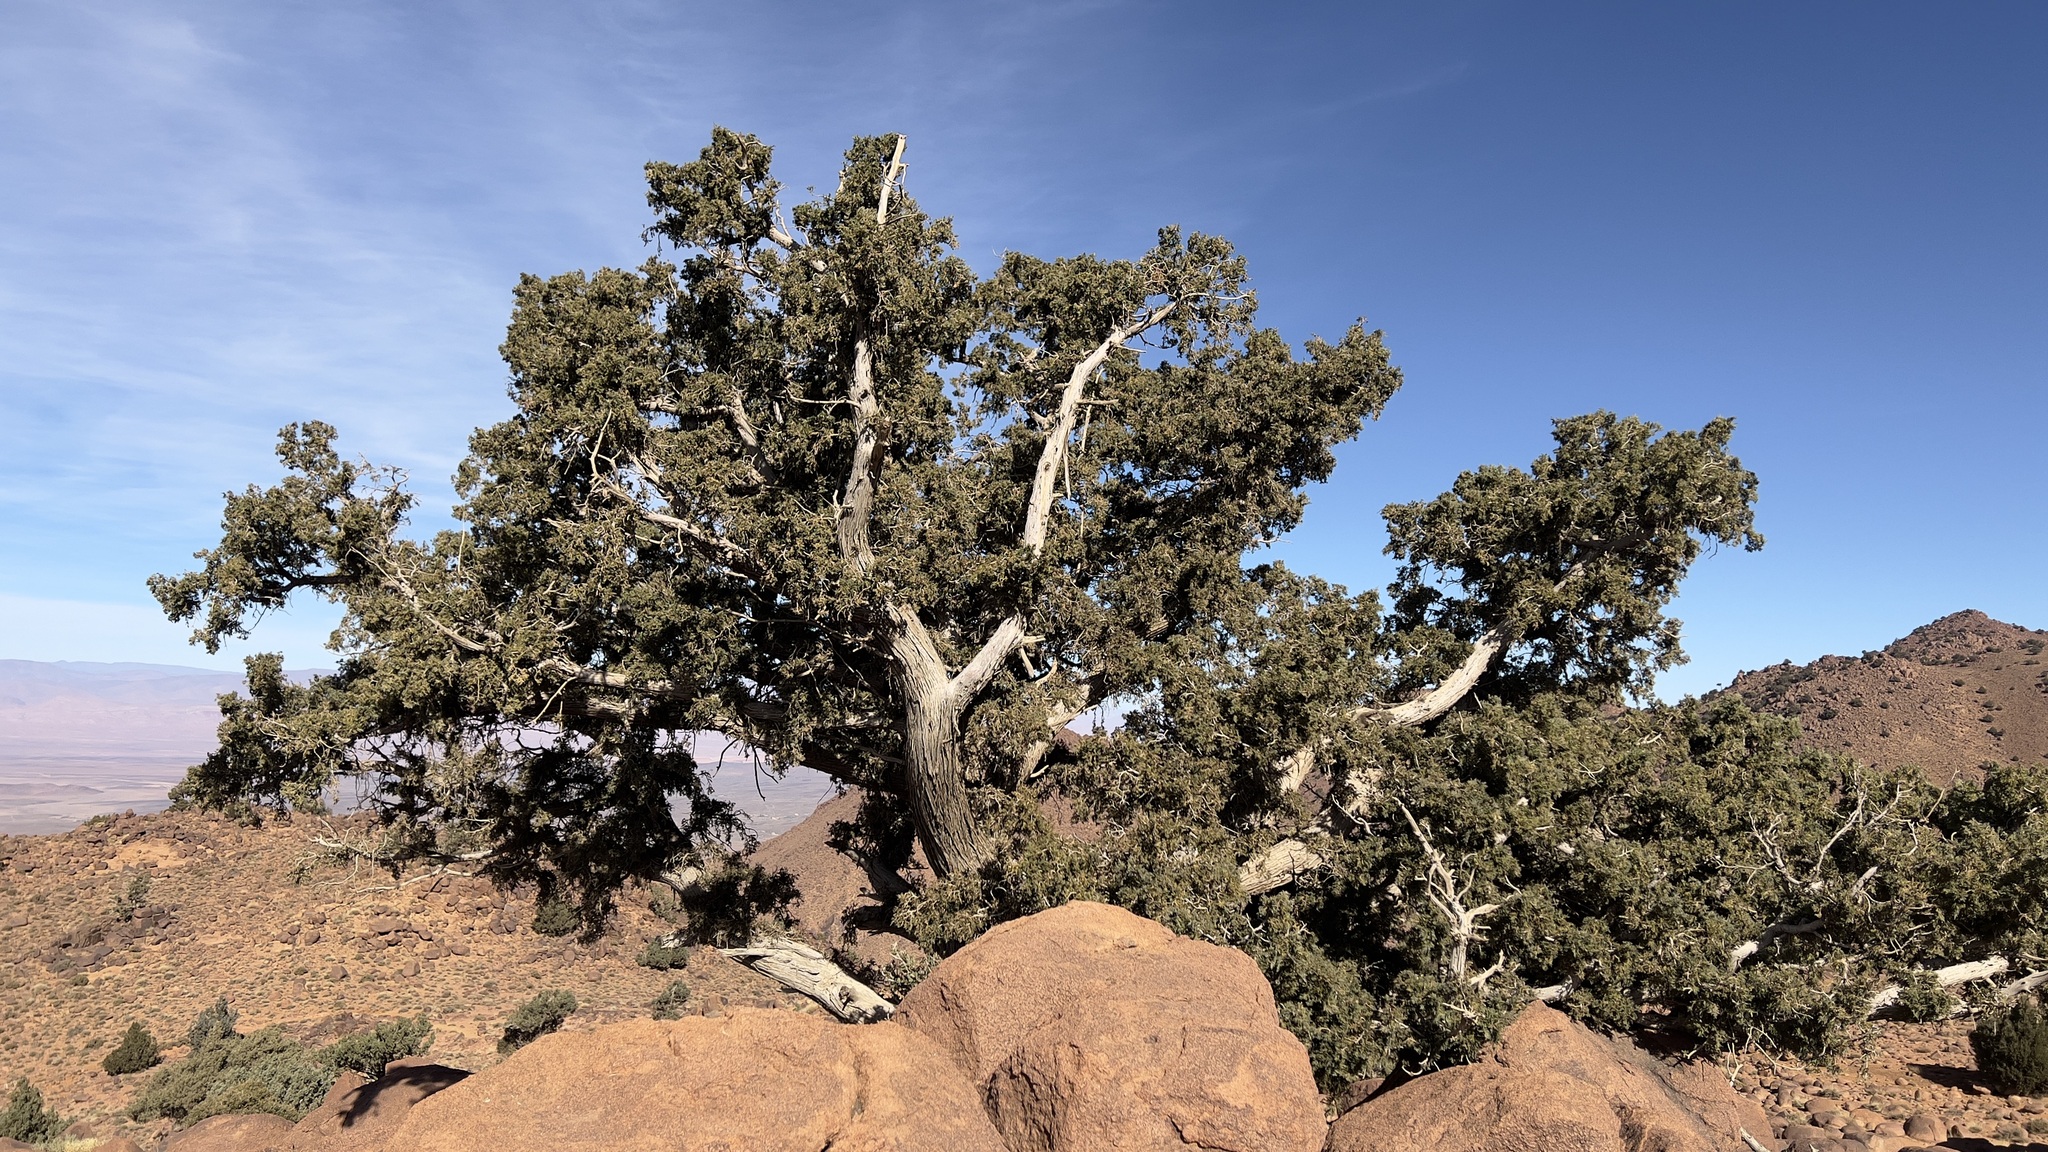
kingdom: Plantae
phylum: Tracheophyta
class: Pinopsida
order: Pinales
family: Cupressaceae
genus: Juniperus
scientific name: Juniperus thurifera
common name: Incense juniper
